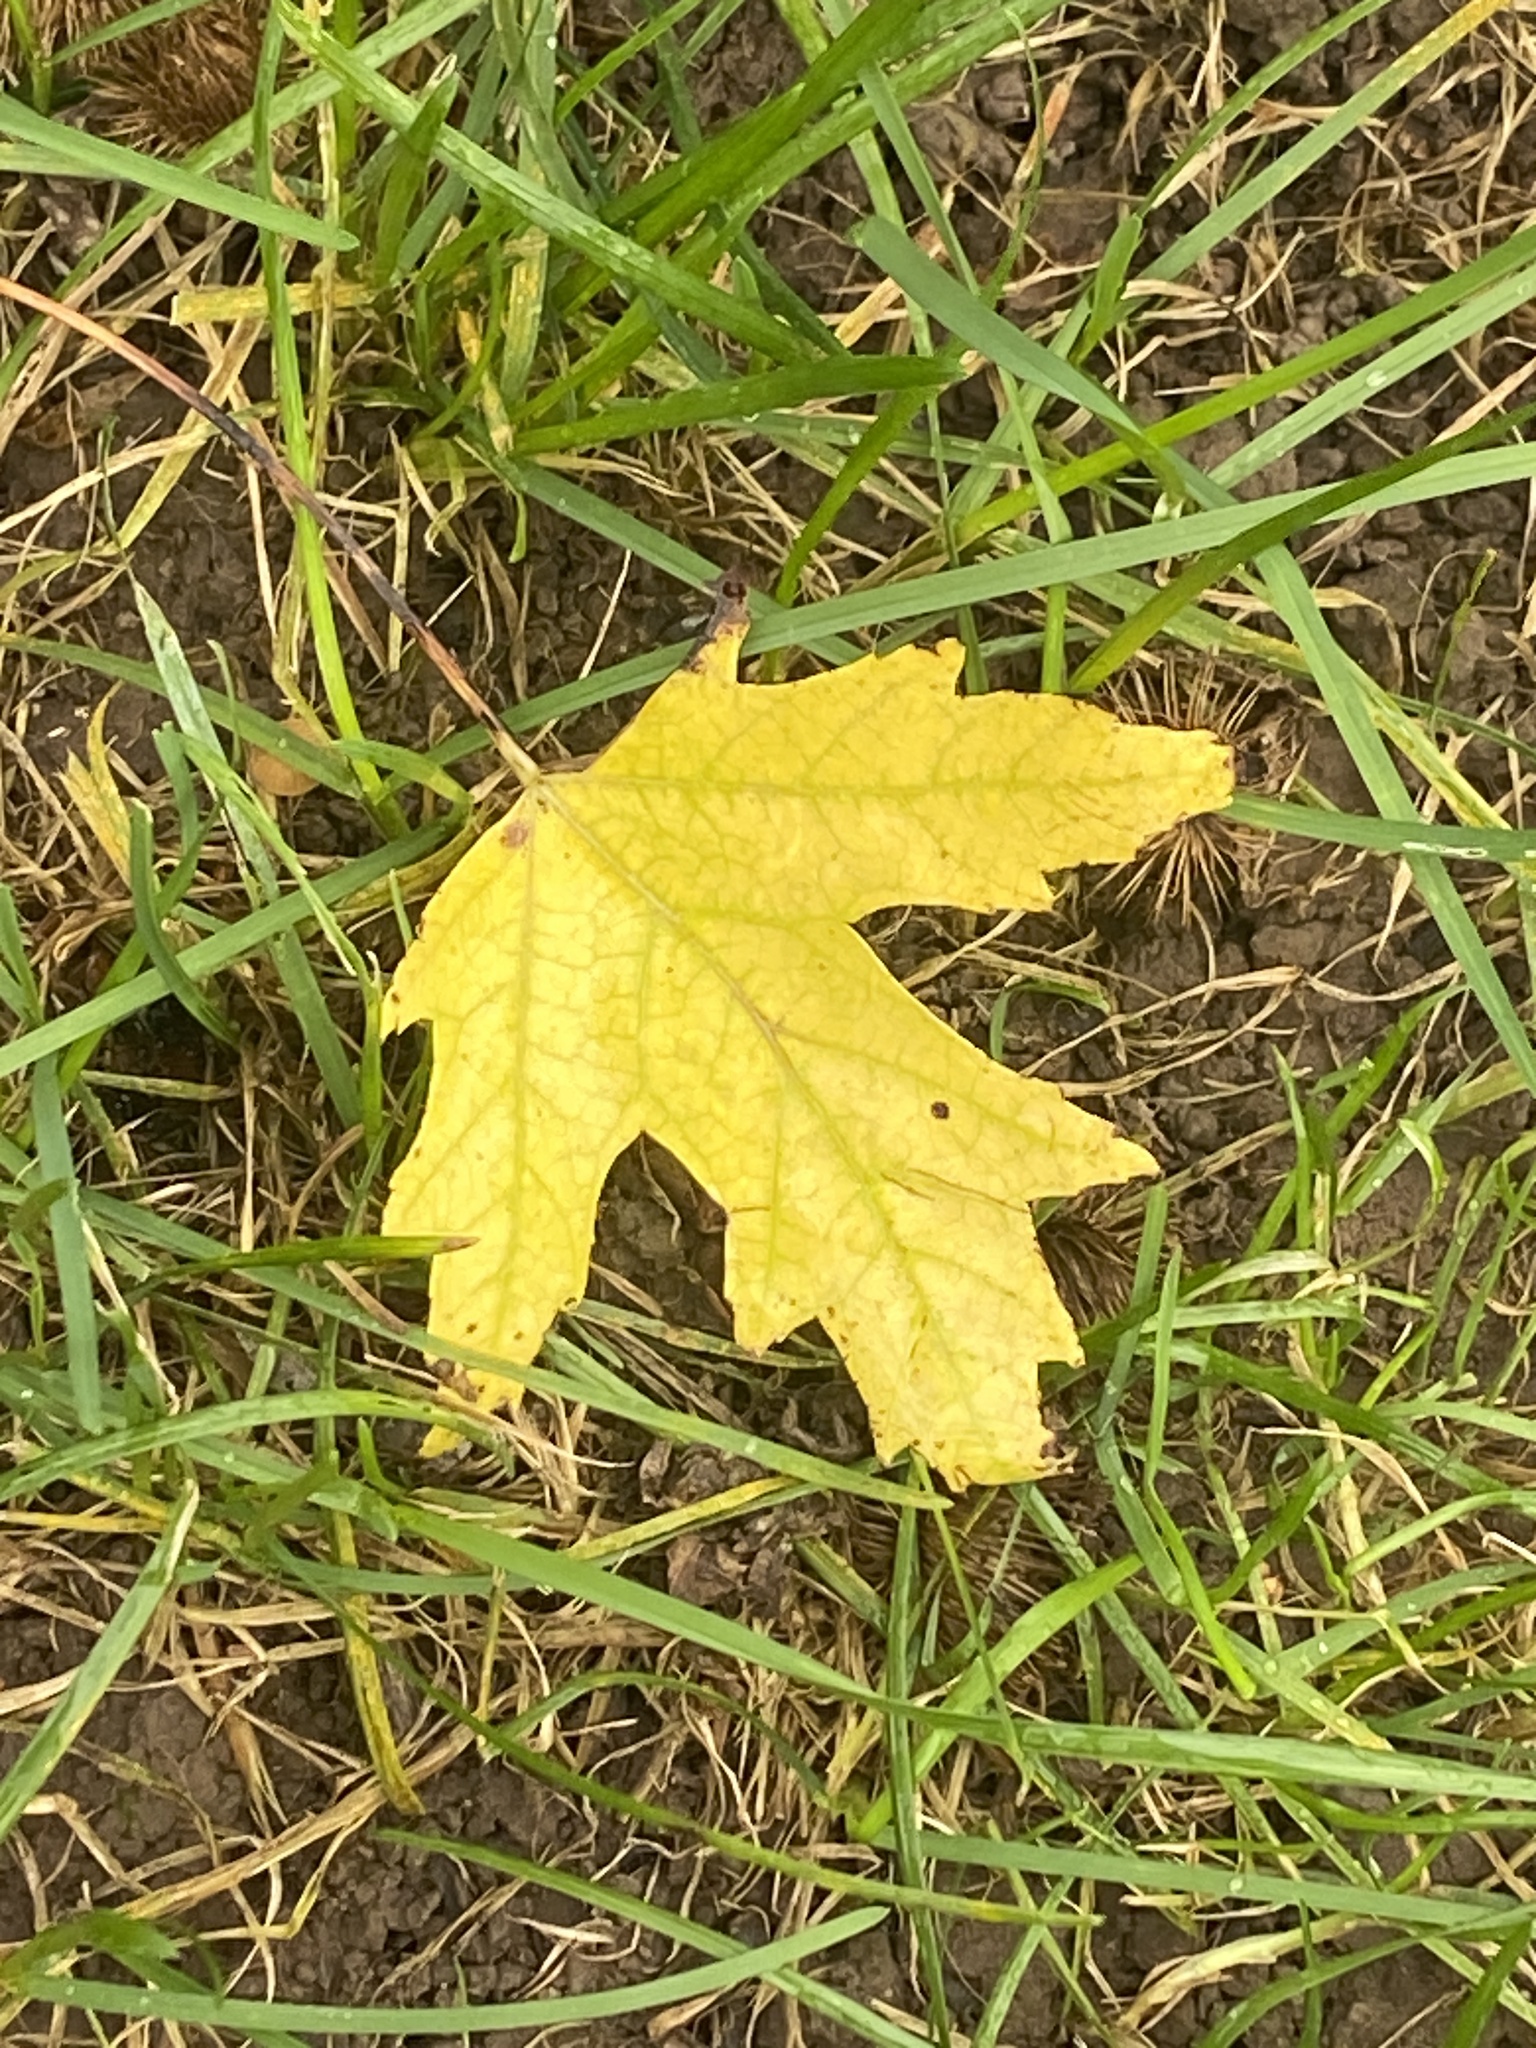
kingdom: Plantae
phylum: Tracheophyta
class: Magnoliopsida
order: Sapindales
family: Sapindaceae
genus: Acer
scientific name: Acer saccharinum
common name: Silver maple
